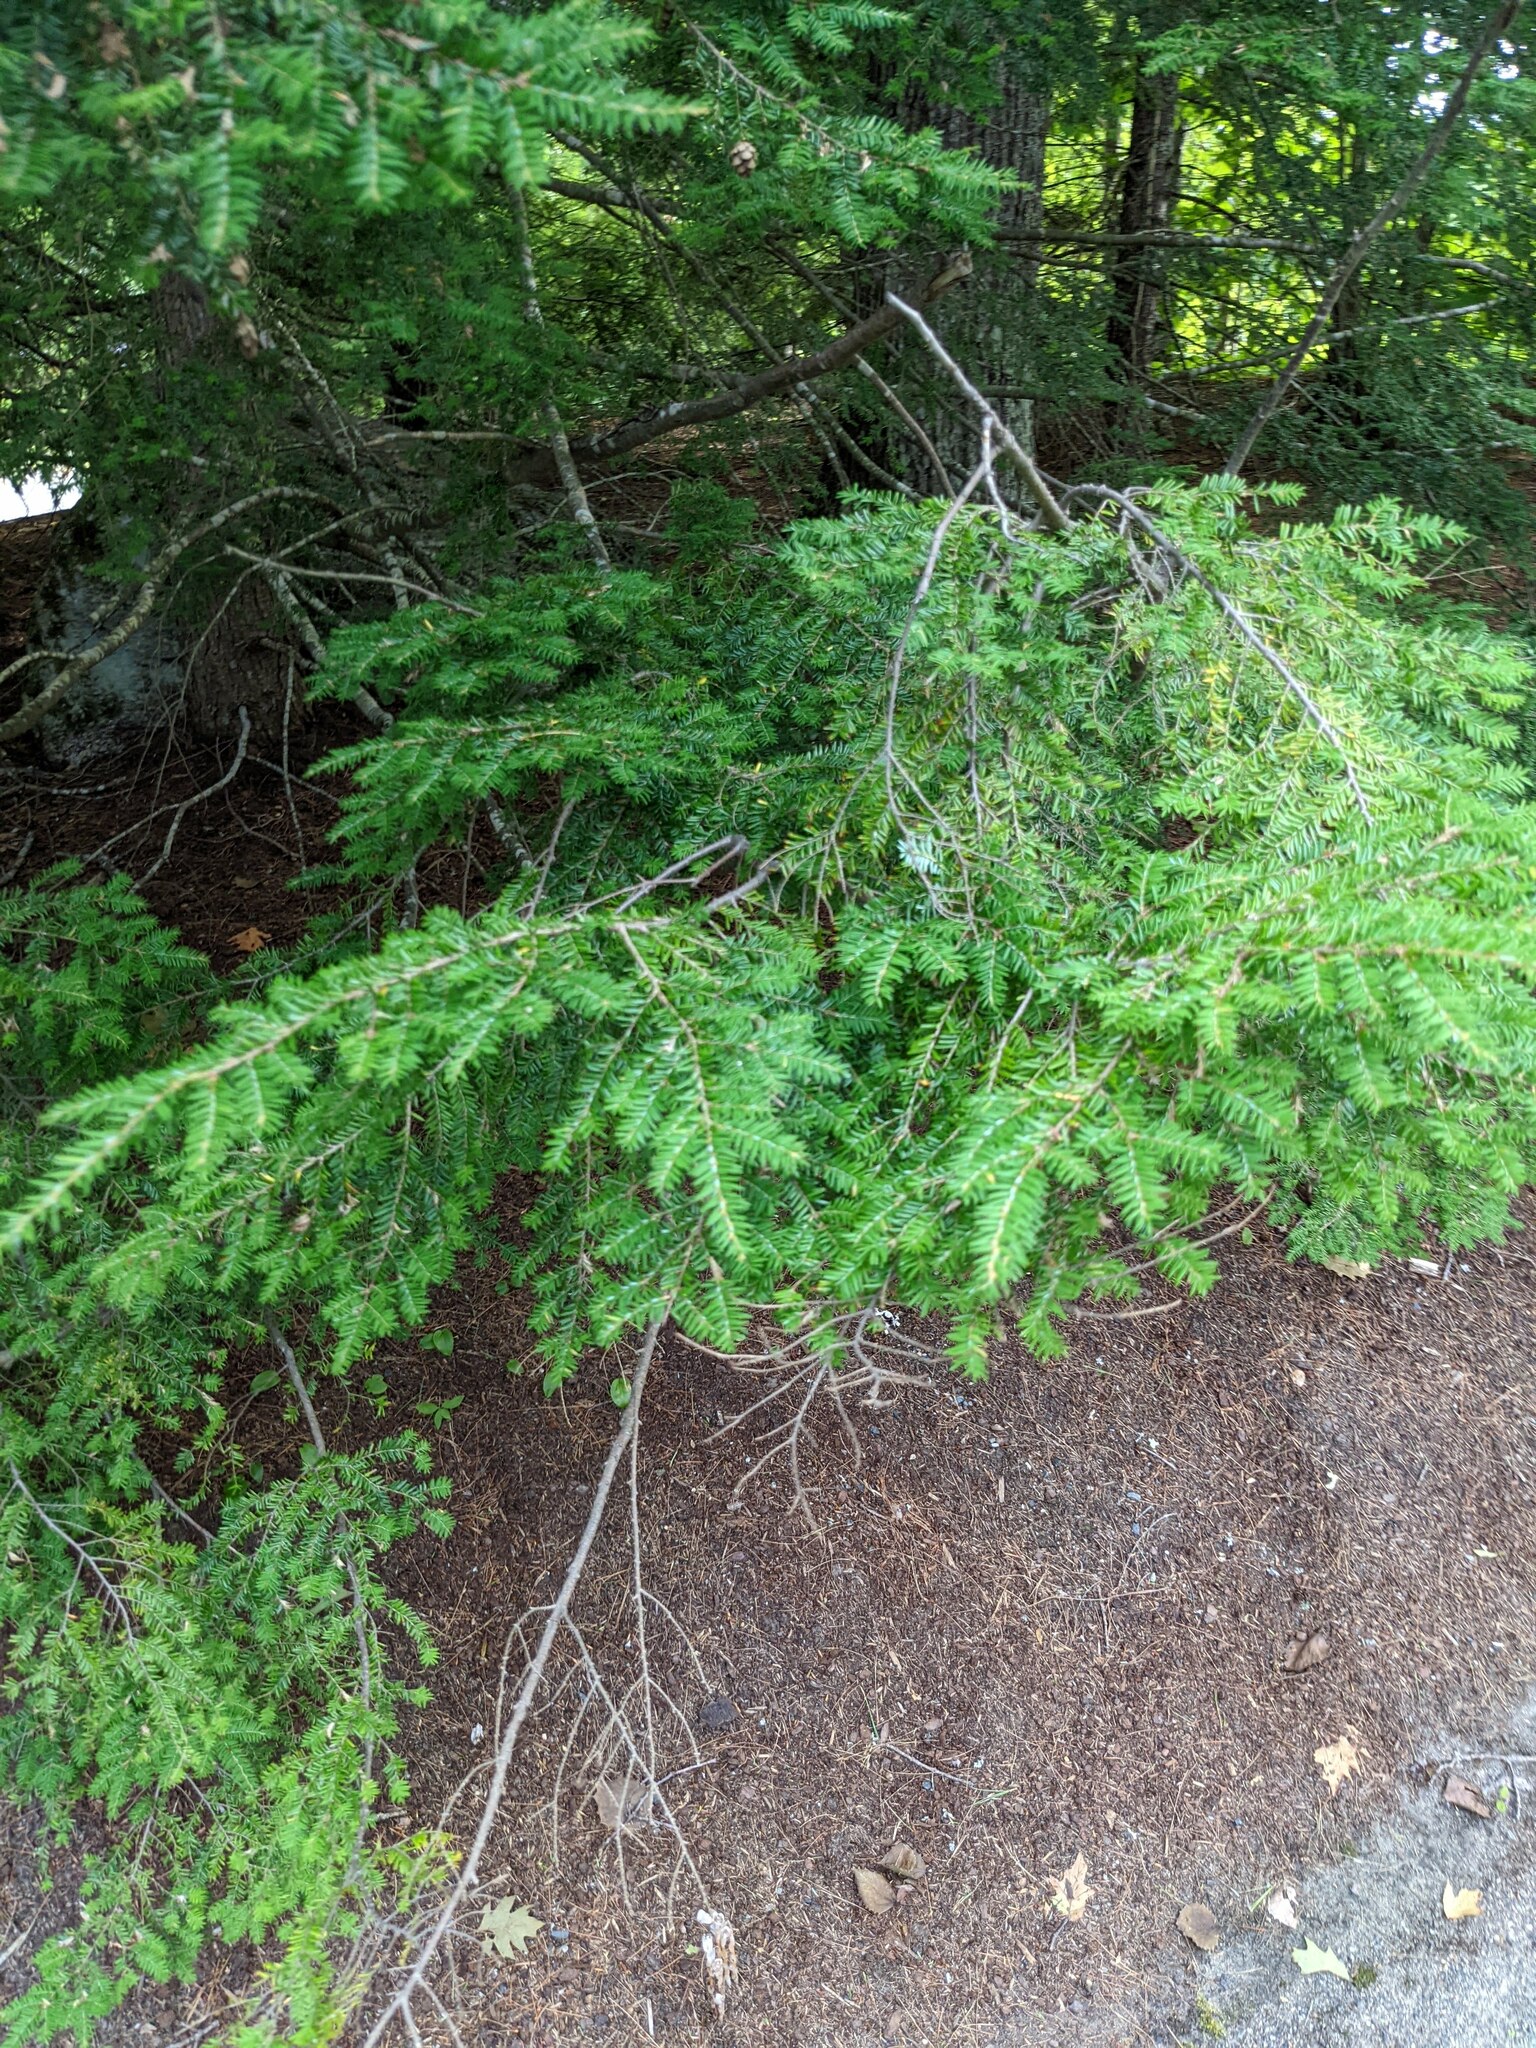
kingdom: Plantae
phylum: Tracheophyta
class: Pinopsida
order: Pinales
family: Pinaceae
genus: Tsuga
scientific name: Tsuga canadensis
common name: Eastern hemlock
